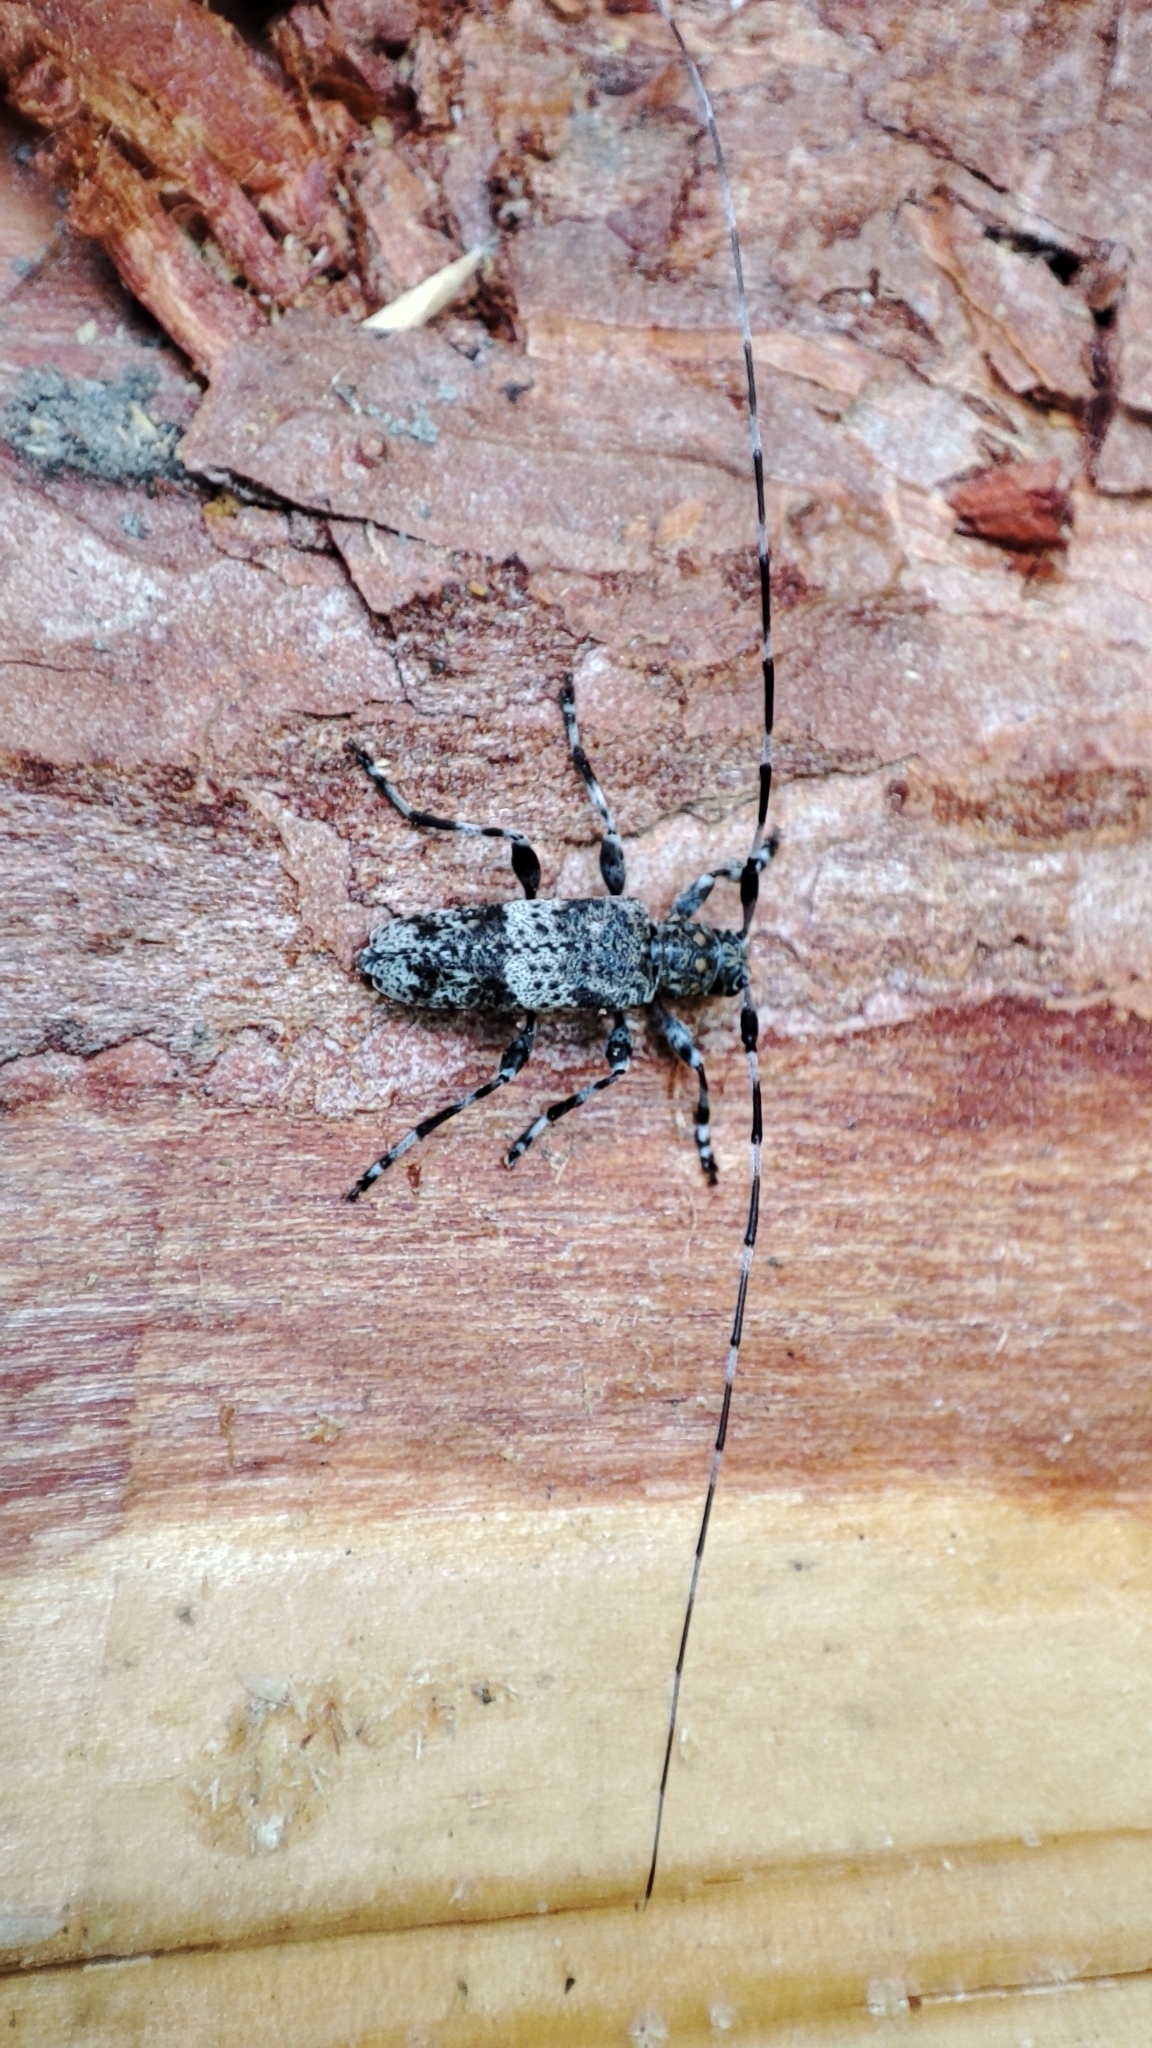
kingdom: Animalia
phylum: Arthropoda
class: Insecta
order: Coleoptera
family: Cerambycidae
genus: Acanthocinus
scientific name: Acanthocinus griseus
